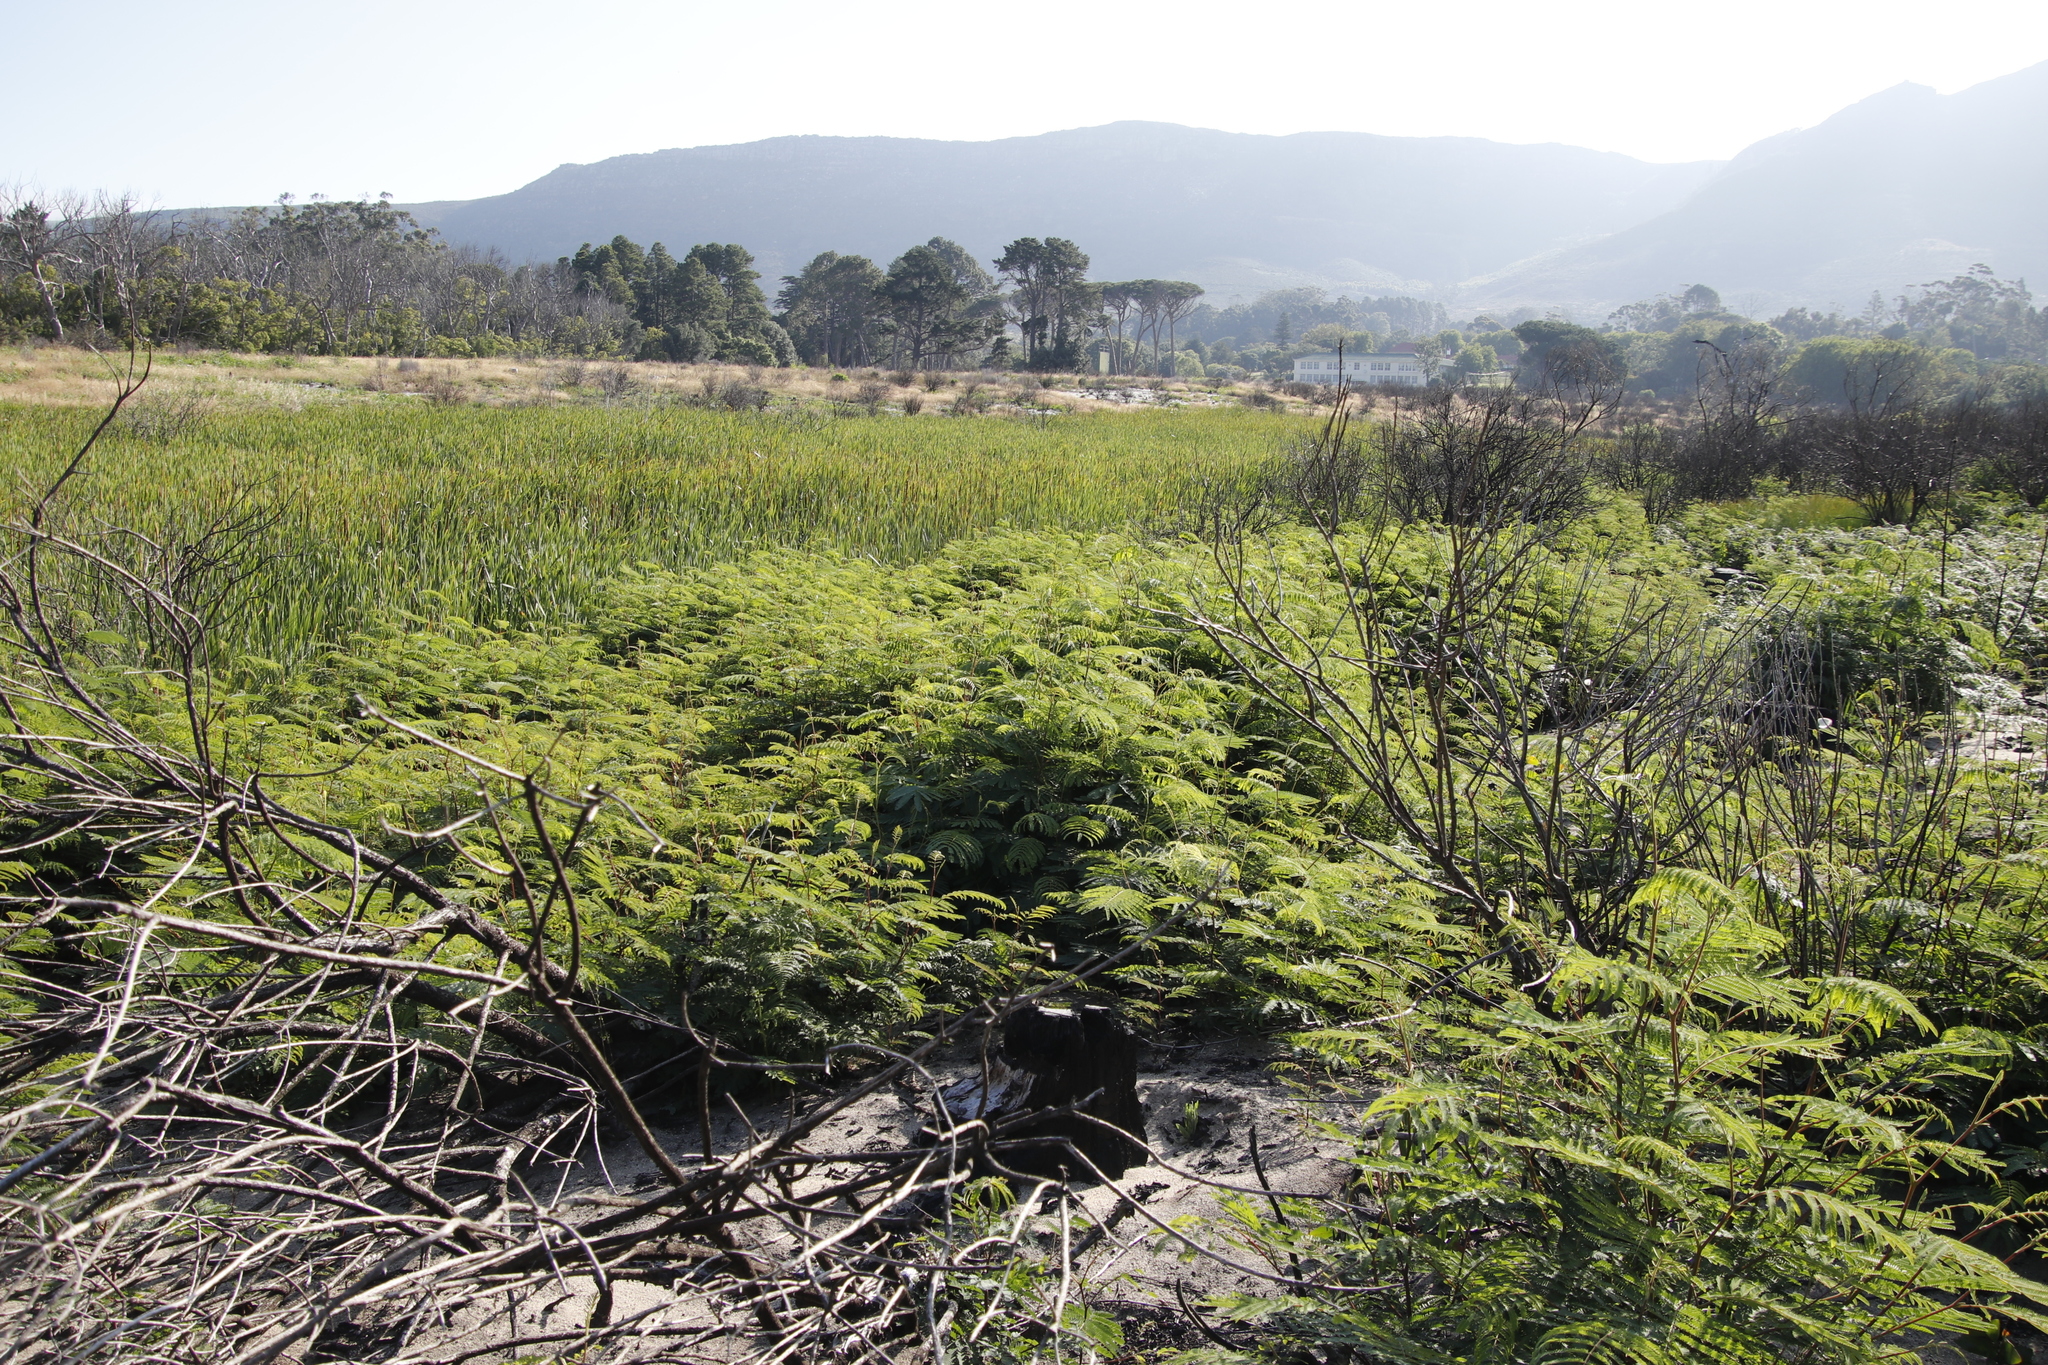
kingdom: Plantae
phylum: Tracheophyta
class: Magnoliopsida
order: Fabales
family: Fabaceae
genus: Paraserianthes
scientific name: Paraserianthes lophantha
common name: Plume albizia
